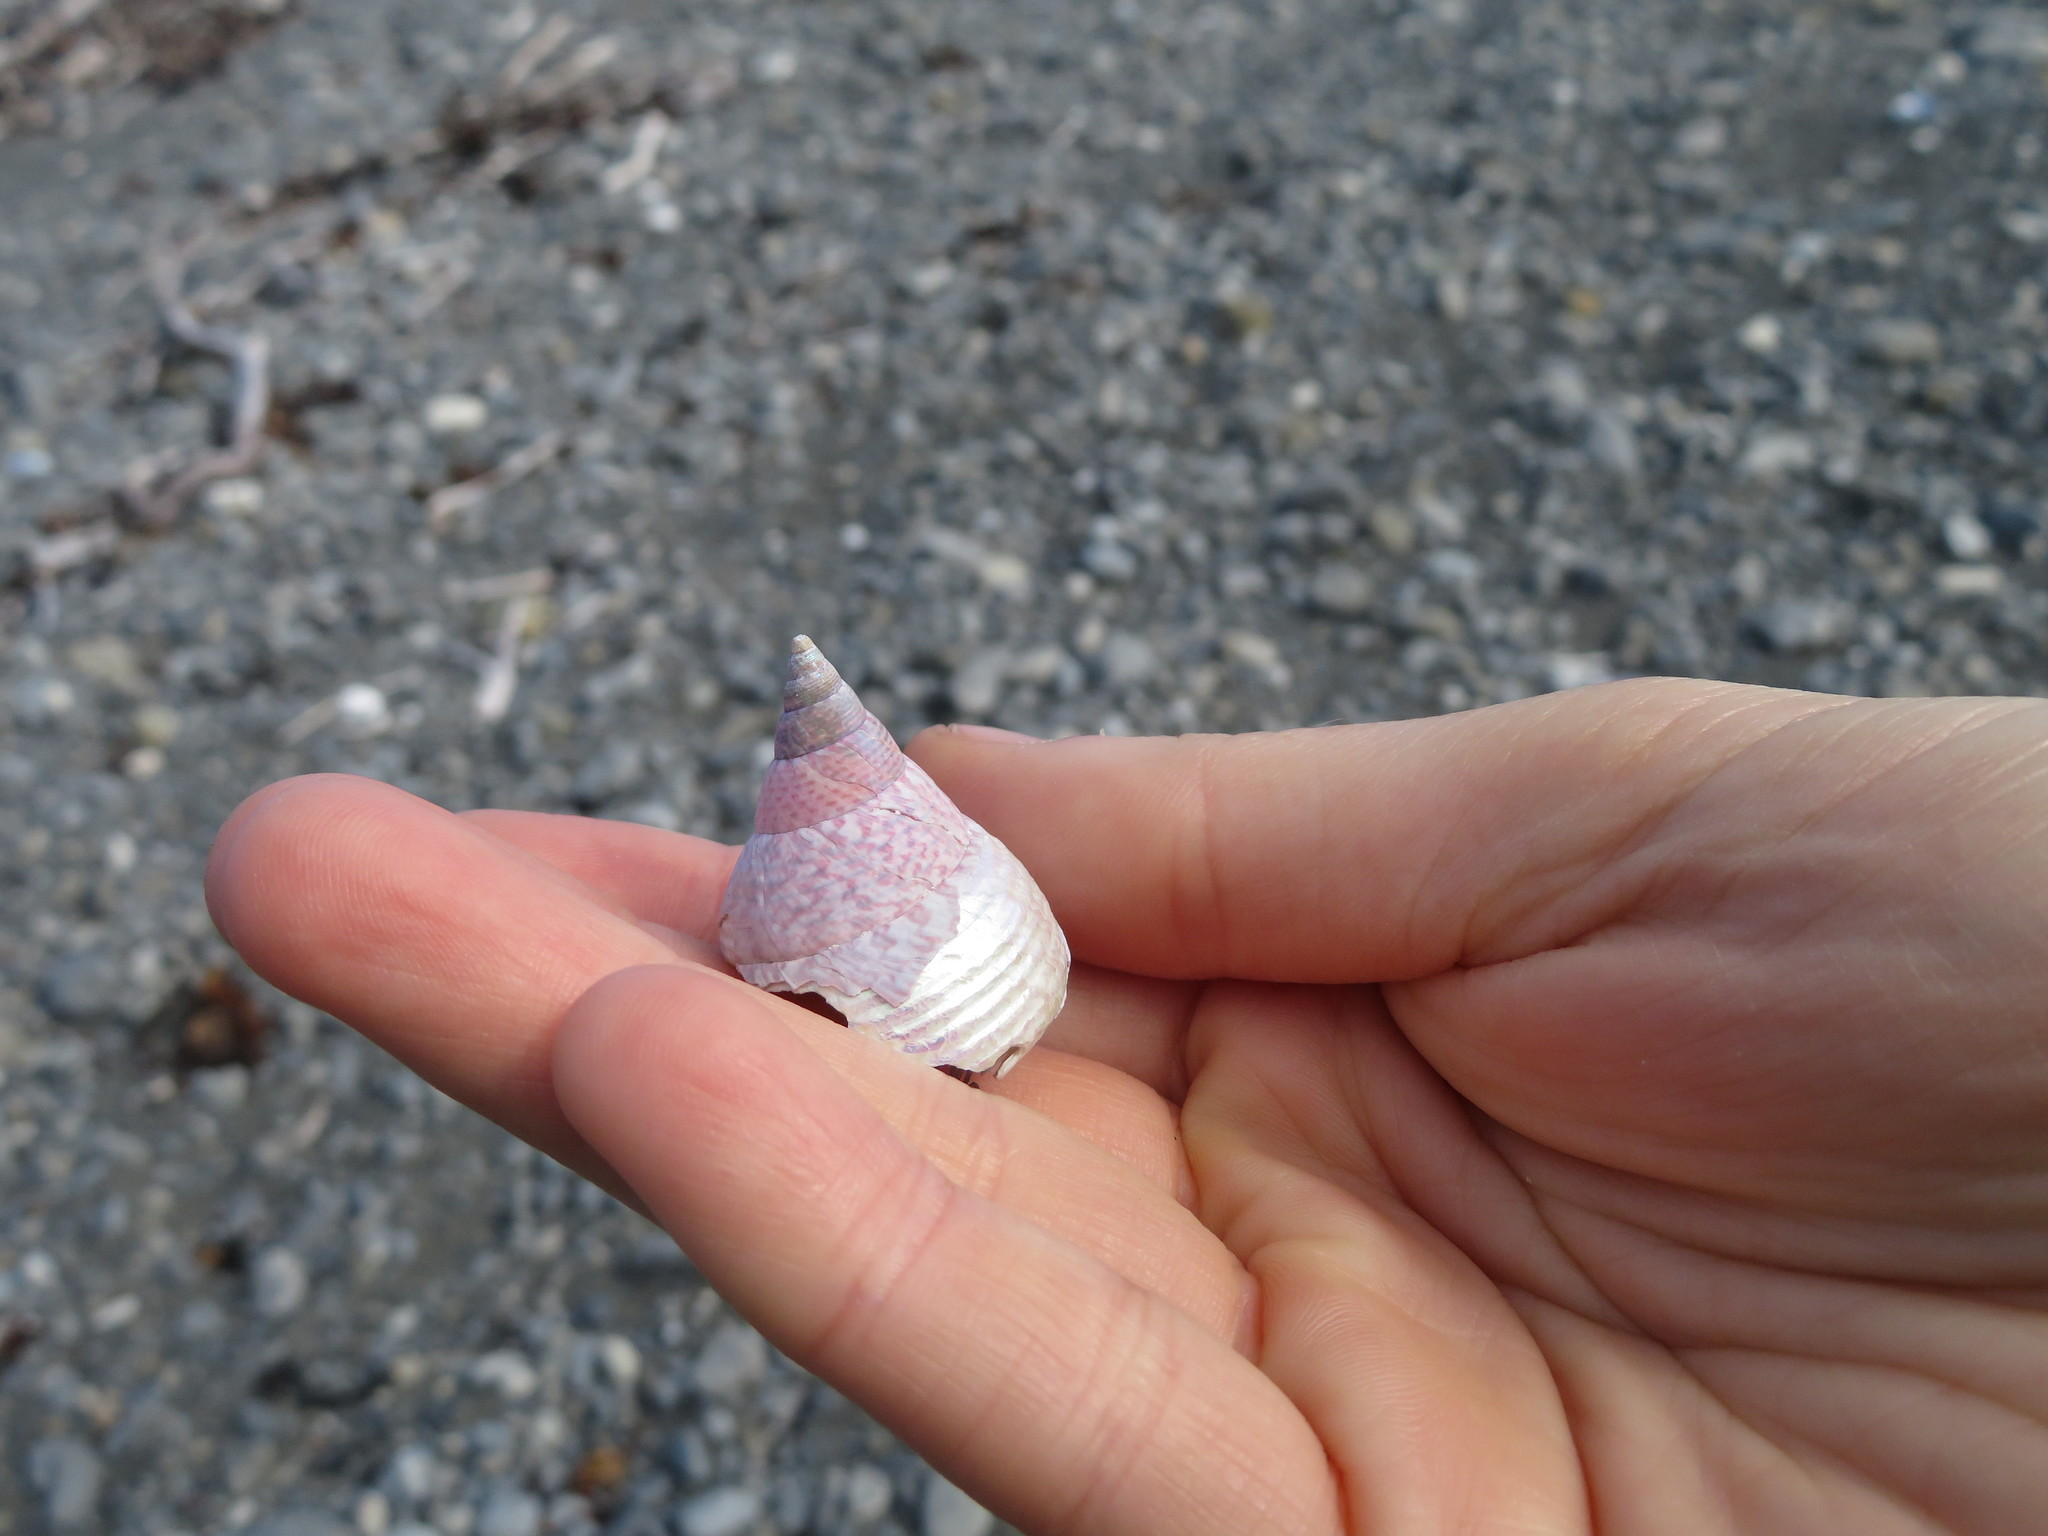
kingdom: Animalia
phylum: Mollusca
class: Gastropoda
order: Trochida
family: Trochidae
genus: Cantharidus
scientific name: Cantharidus opalus
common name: Opal jewel topsnail
